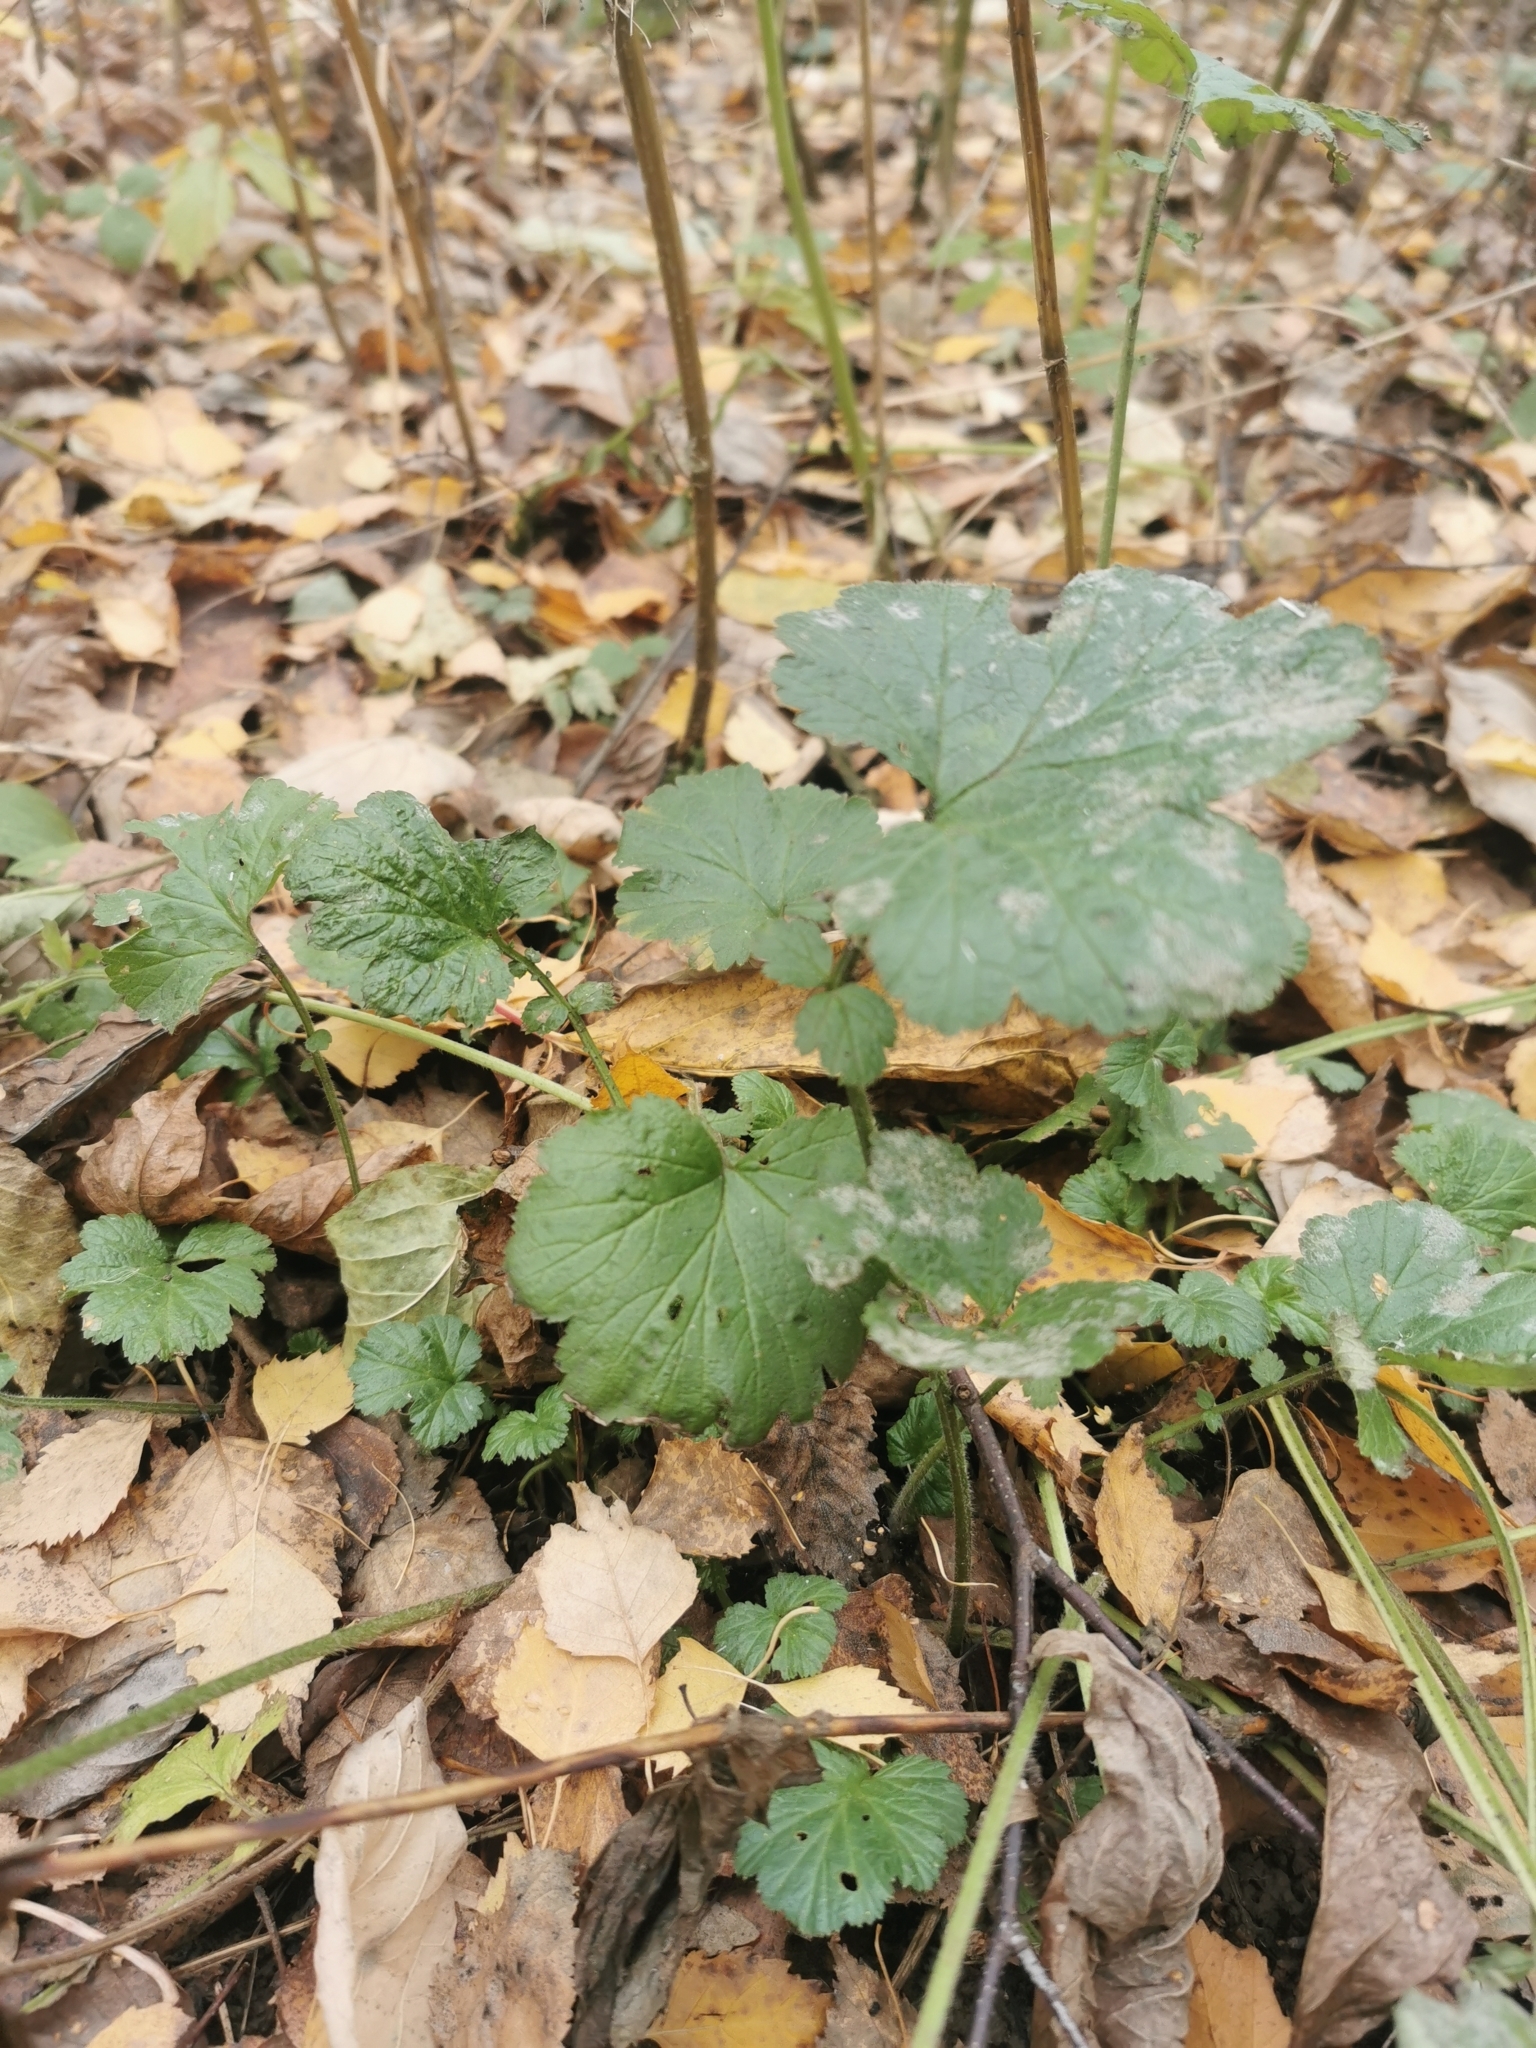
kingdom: Plantae
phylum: Tracheophyta
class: Magnoliopsida
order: Rosales
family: Rosaceae
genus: Geum
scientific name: Geum urbanum
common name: Wood avens
